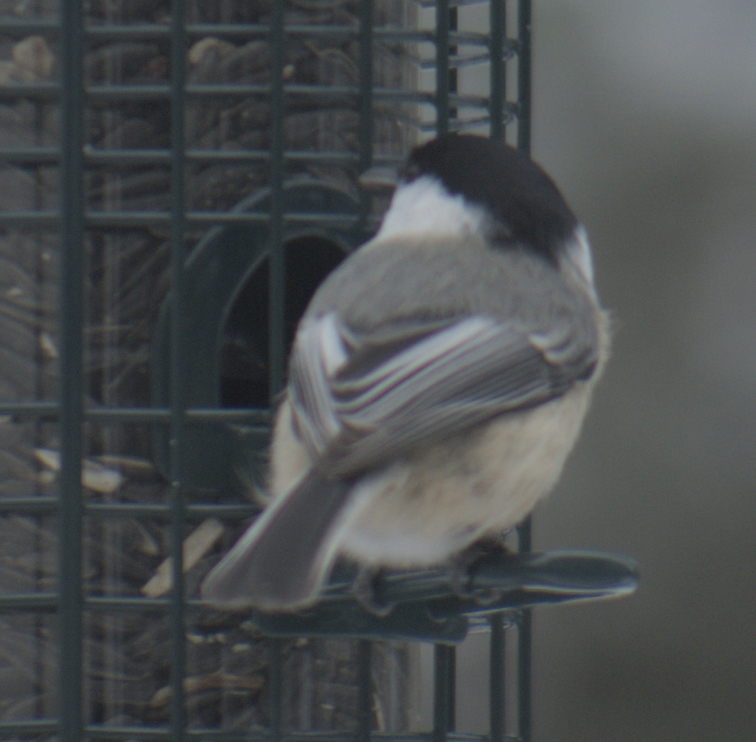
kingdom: Animalia
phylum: Chordata
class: Aves
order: Passeriformes
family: Paridae
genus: Poecile
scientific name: Poecile atricapillus
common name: Black-capped chickadee
